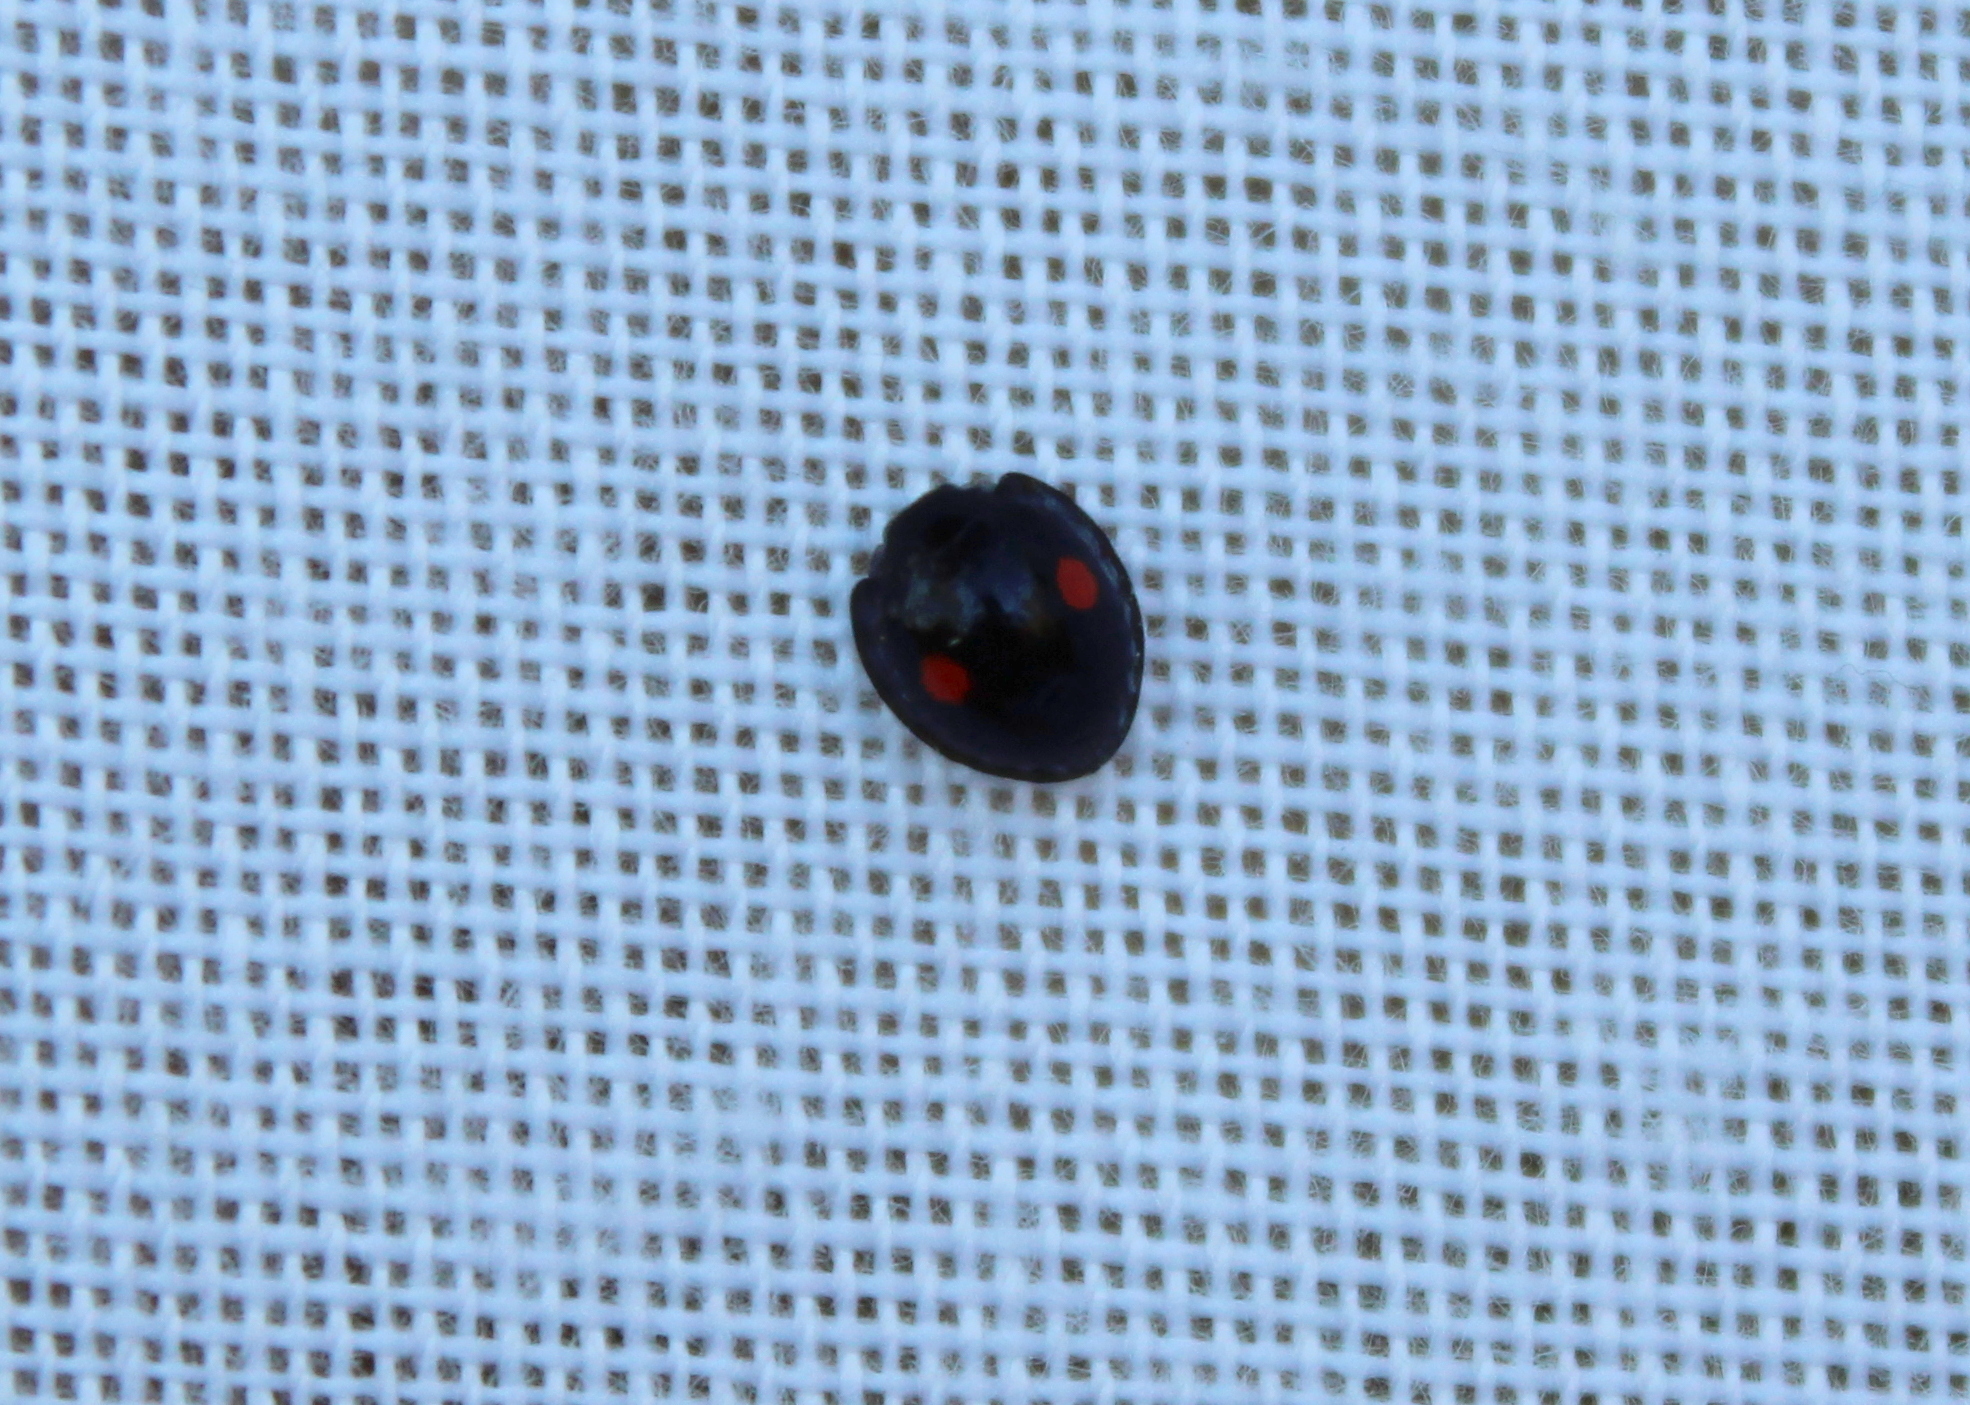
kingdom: Animalia
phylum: Arthropoda
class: Insecta
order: Coleoptera
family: Coccinellidae
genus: Chilocorus
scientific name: Chilocorus stigma
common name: Twicestabbed lady beetle
